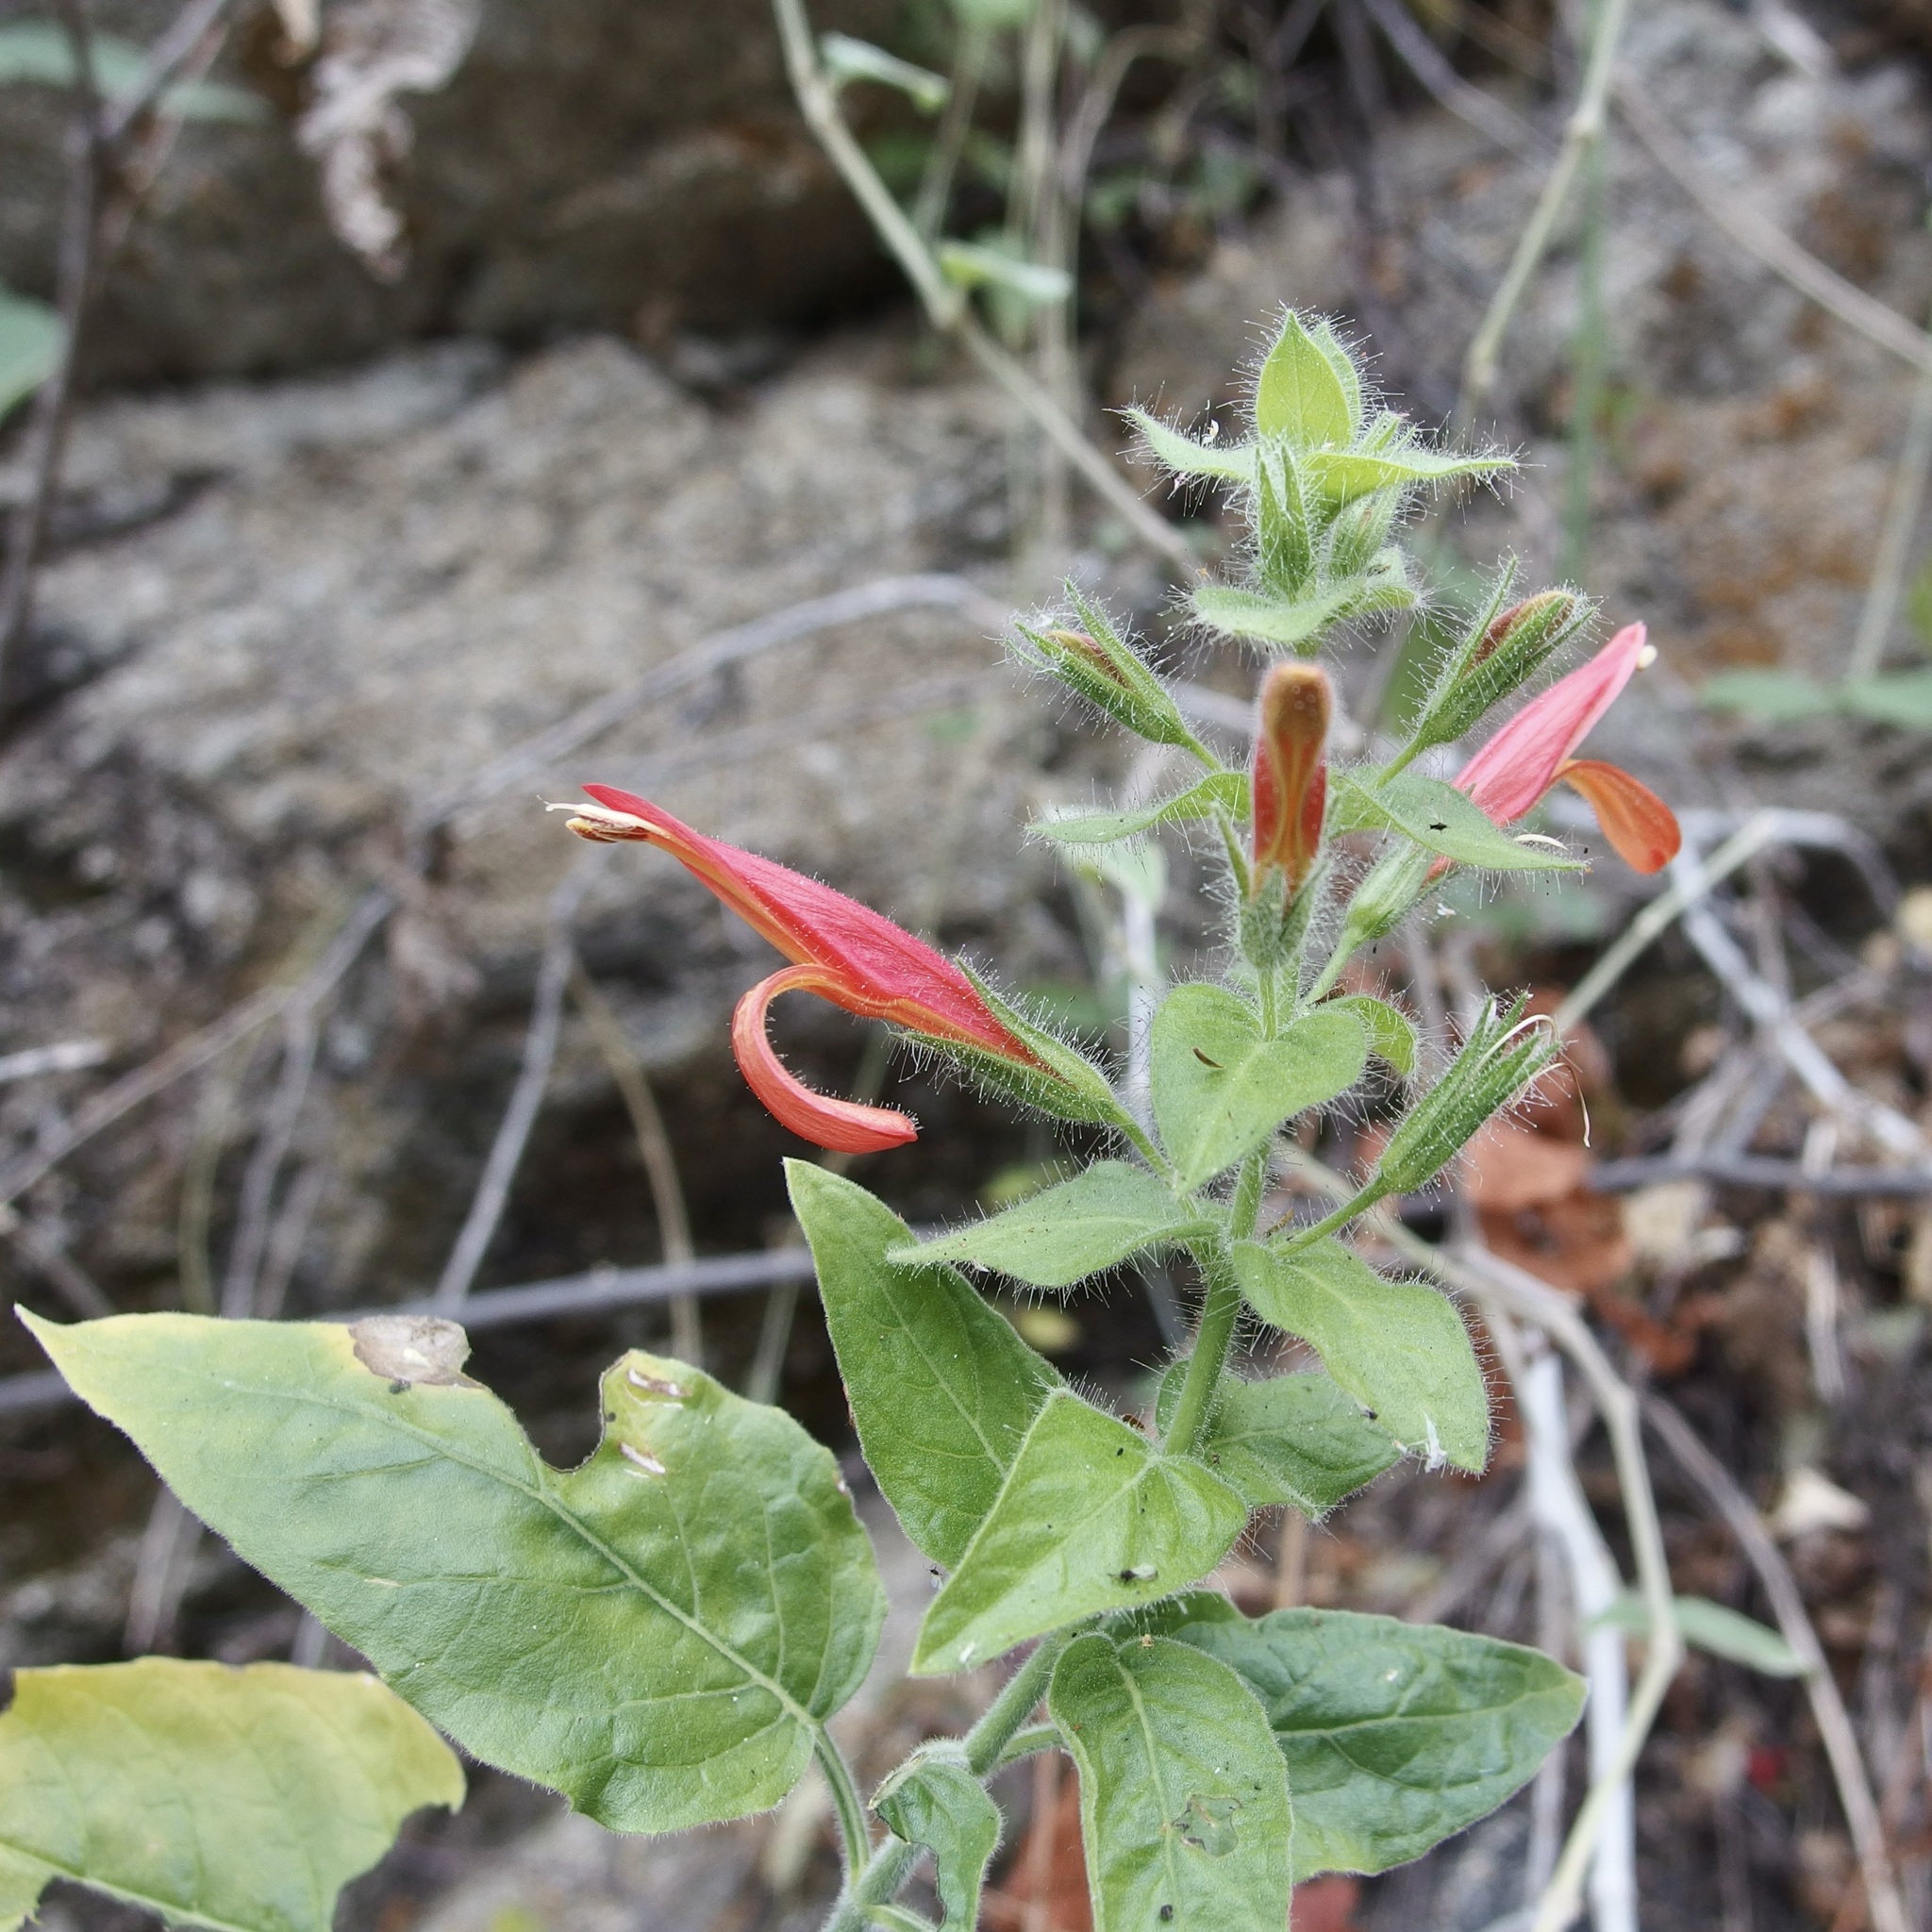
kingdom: Plantae
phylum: Tracheophyta
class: Magnoliopsida
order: Lamiales
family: Acanthaceae
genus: Justicia
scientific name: Justicia purpusii
